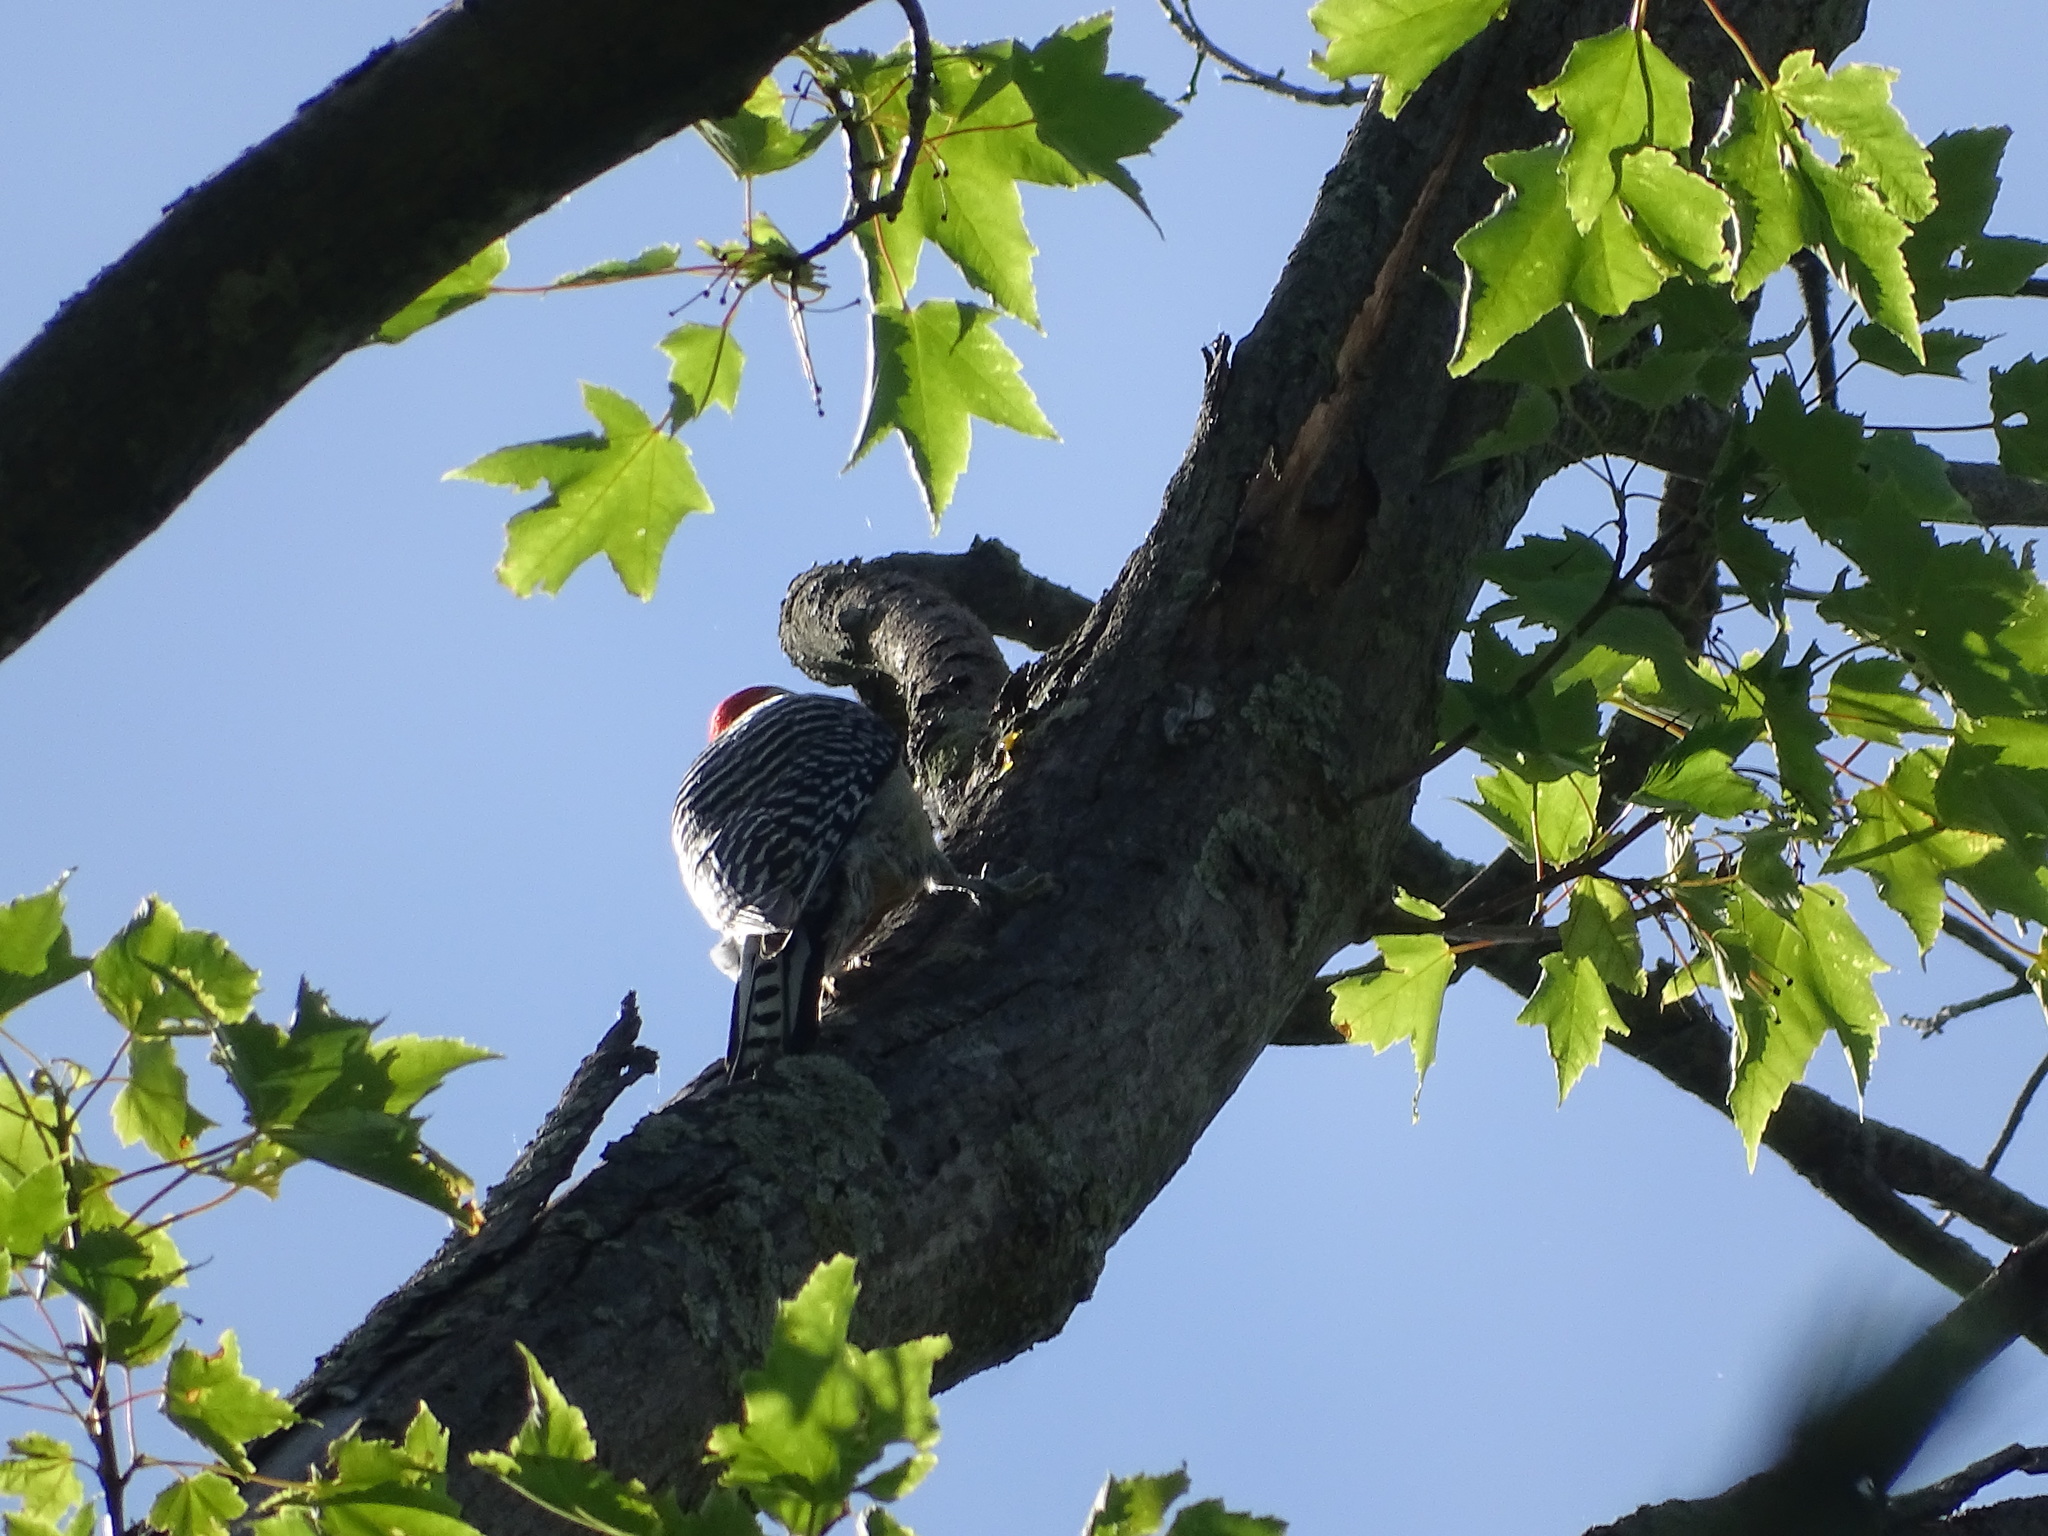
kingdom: Animalia
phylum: Chordata
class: Aves
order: Piciformes
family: Picidae
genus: Melanerpes
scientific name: Melanerpes carolinus
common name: Red-bellied woodpecker
